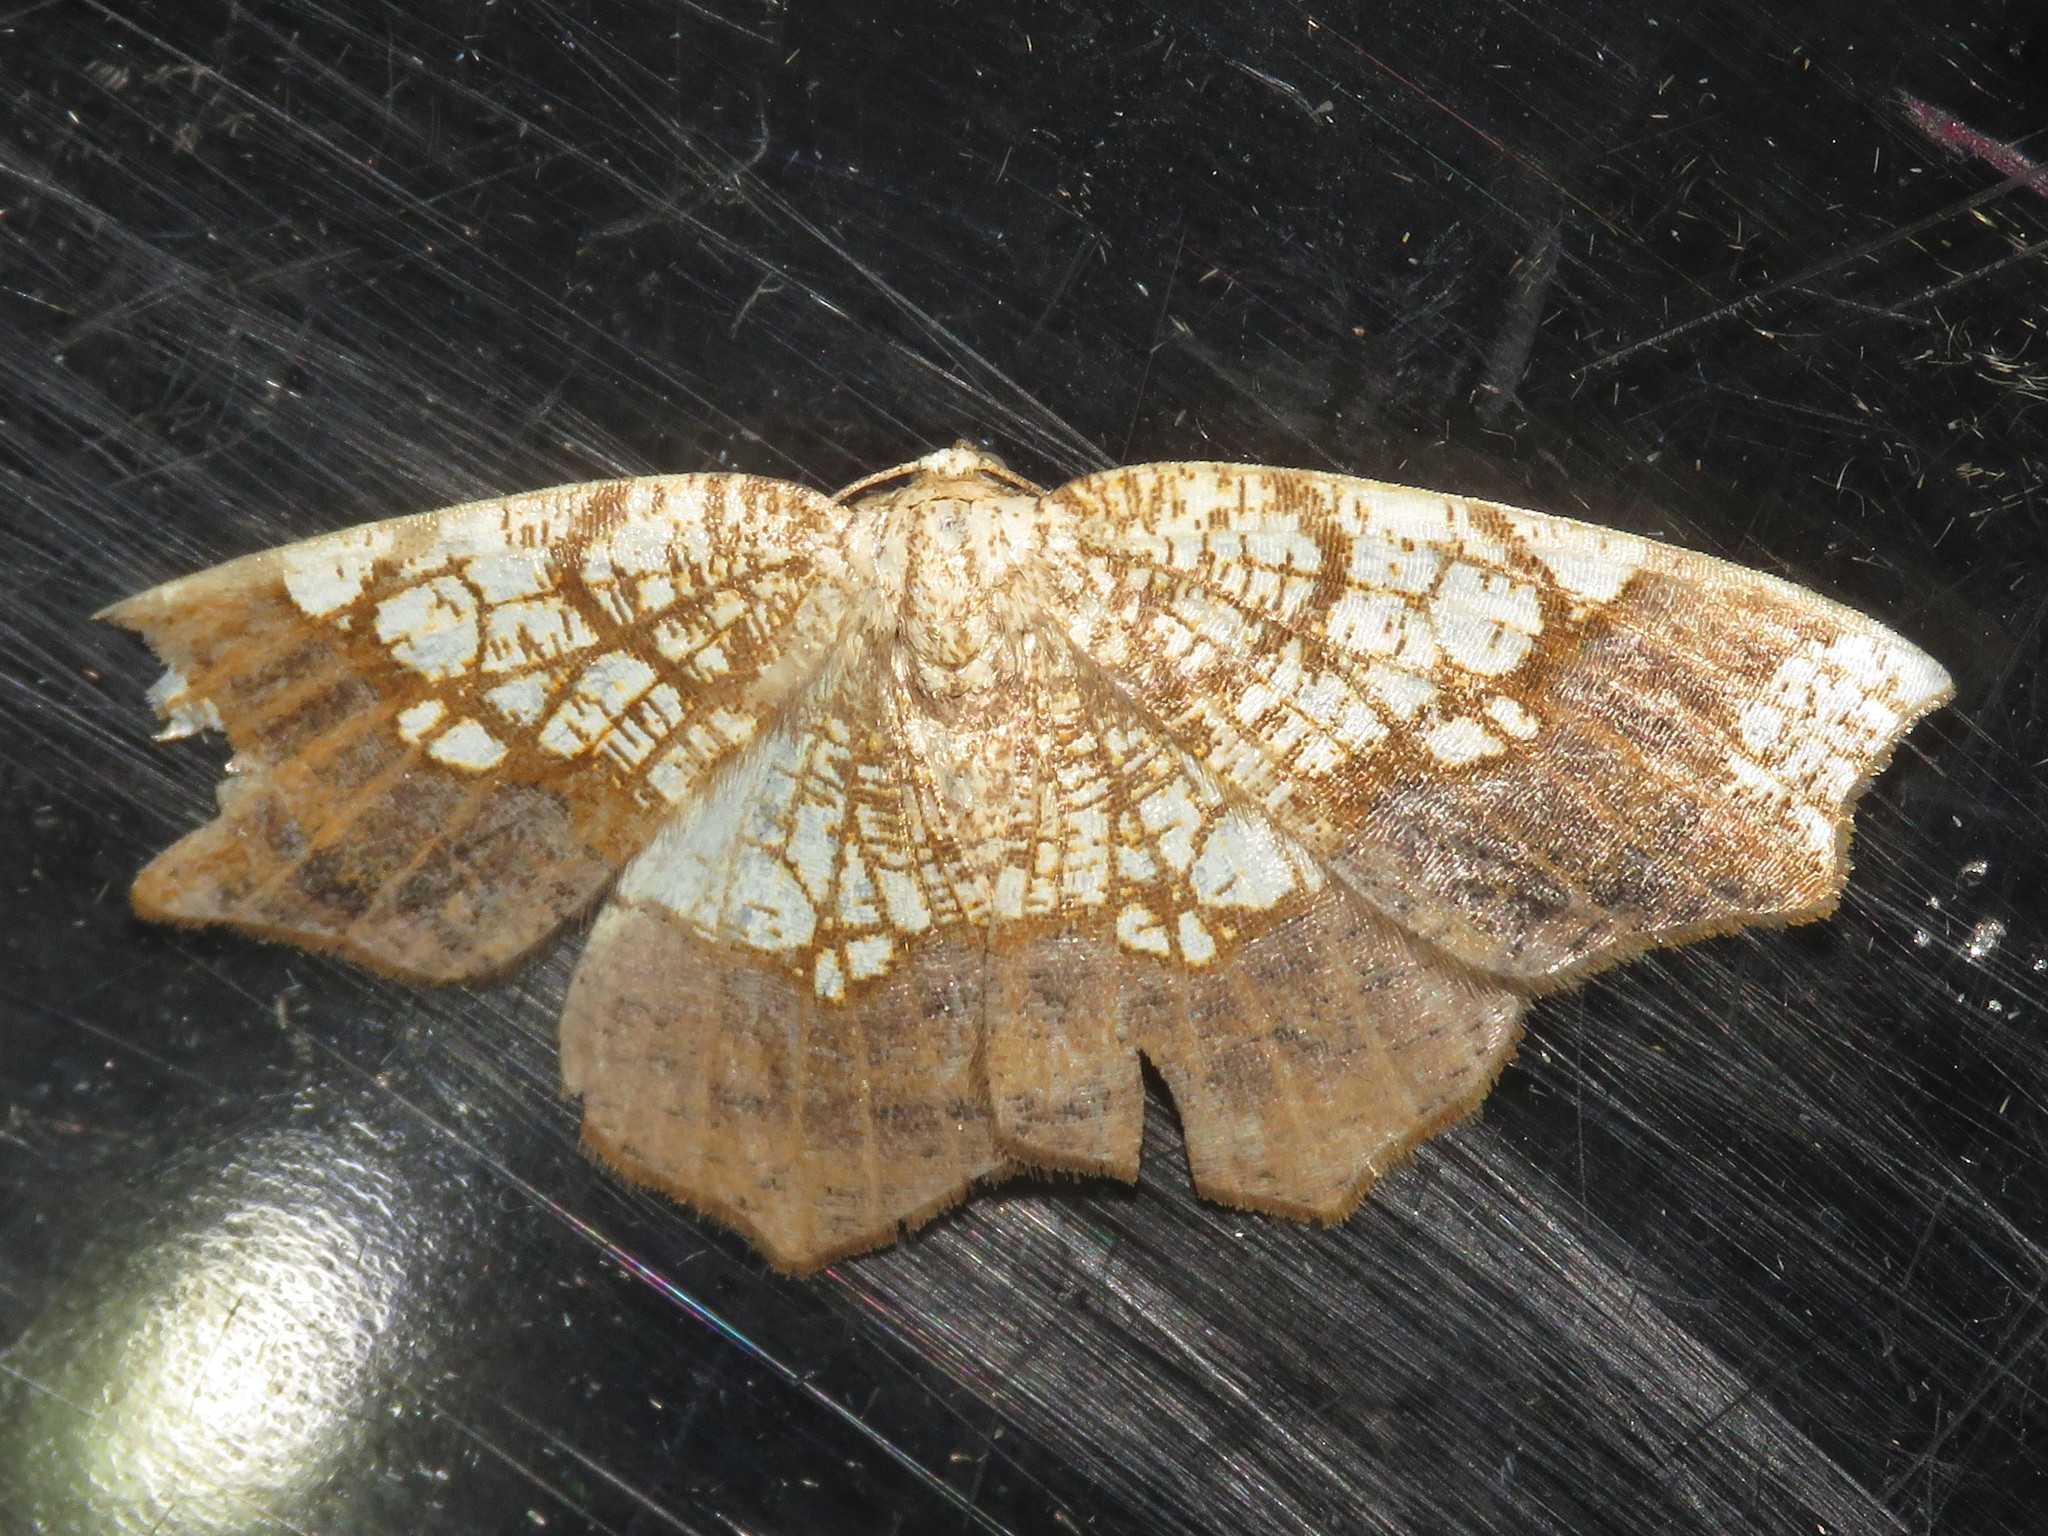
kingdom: Animalia
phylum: Arthropoda
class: Insecta
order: Lepidoptera
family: Geometridae
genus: Nematocampa
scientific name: Nematocampa resistaria
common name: Horned spanworm moth
